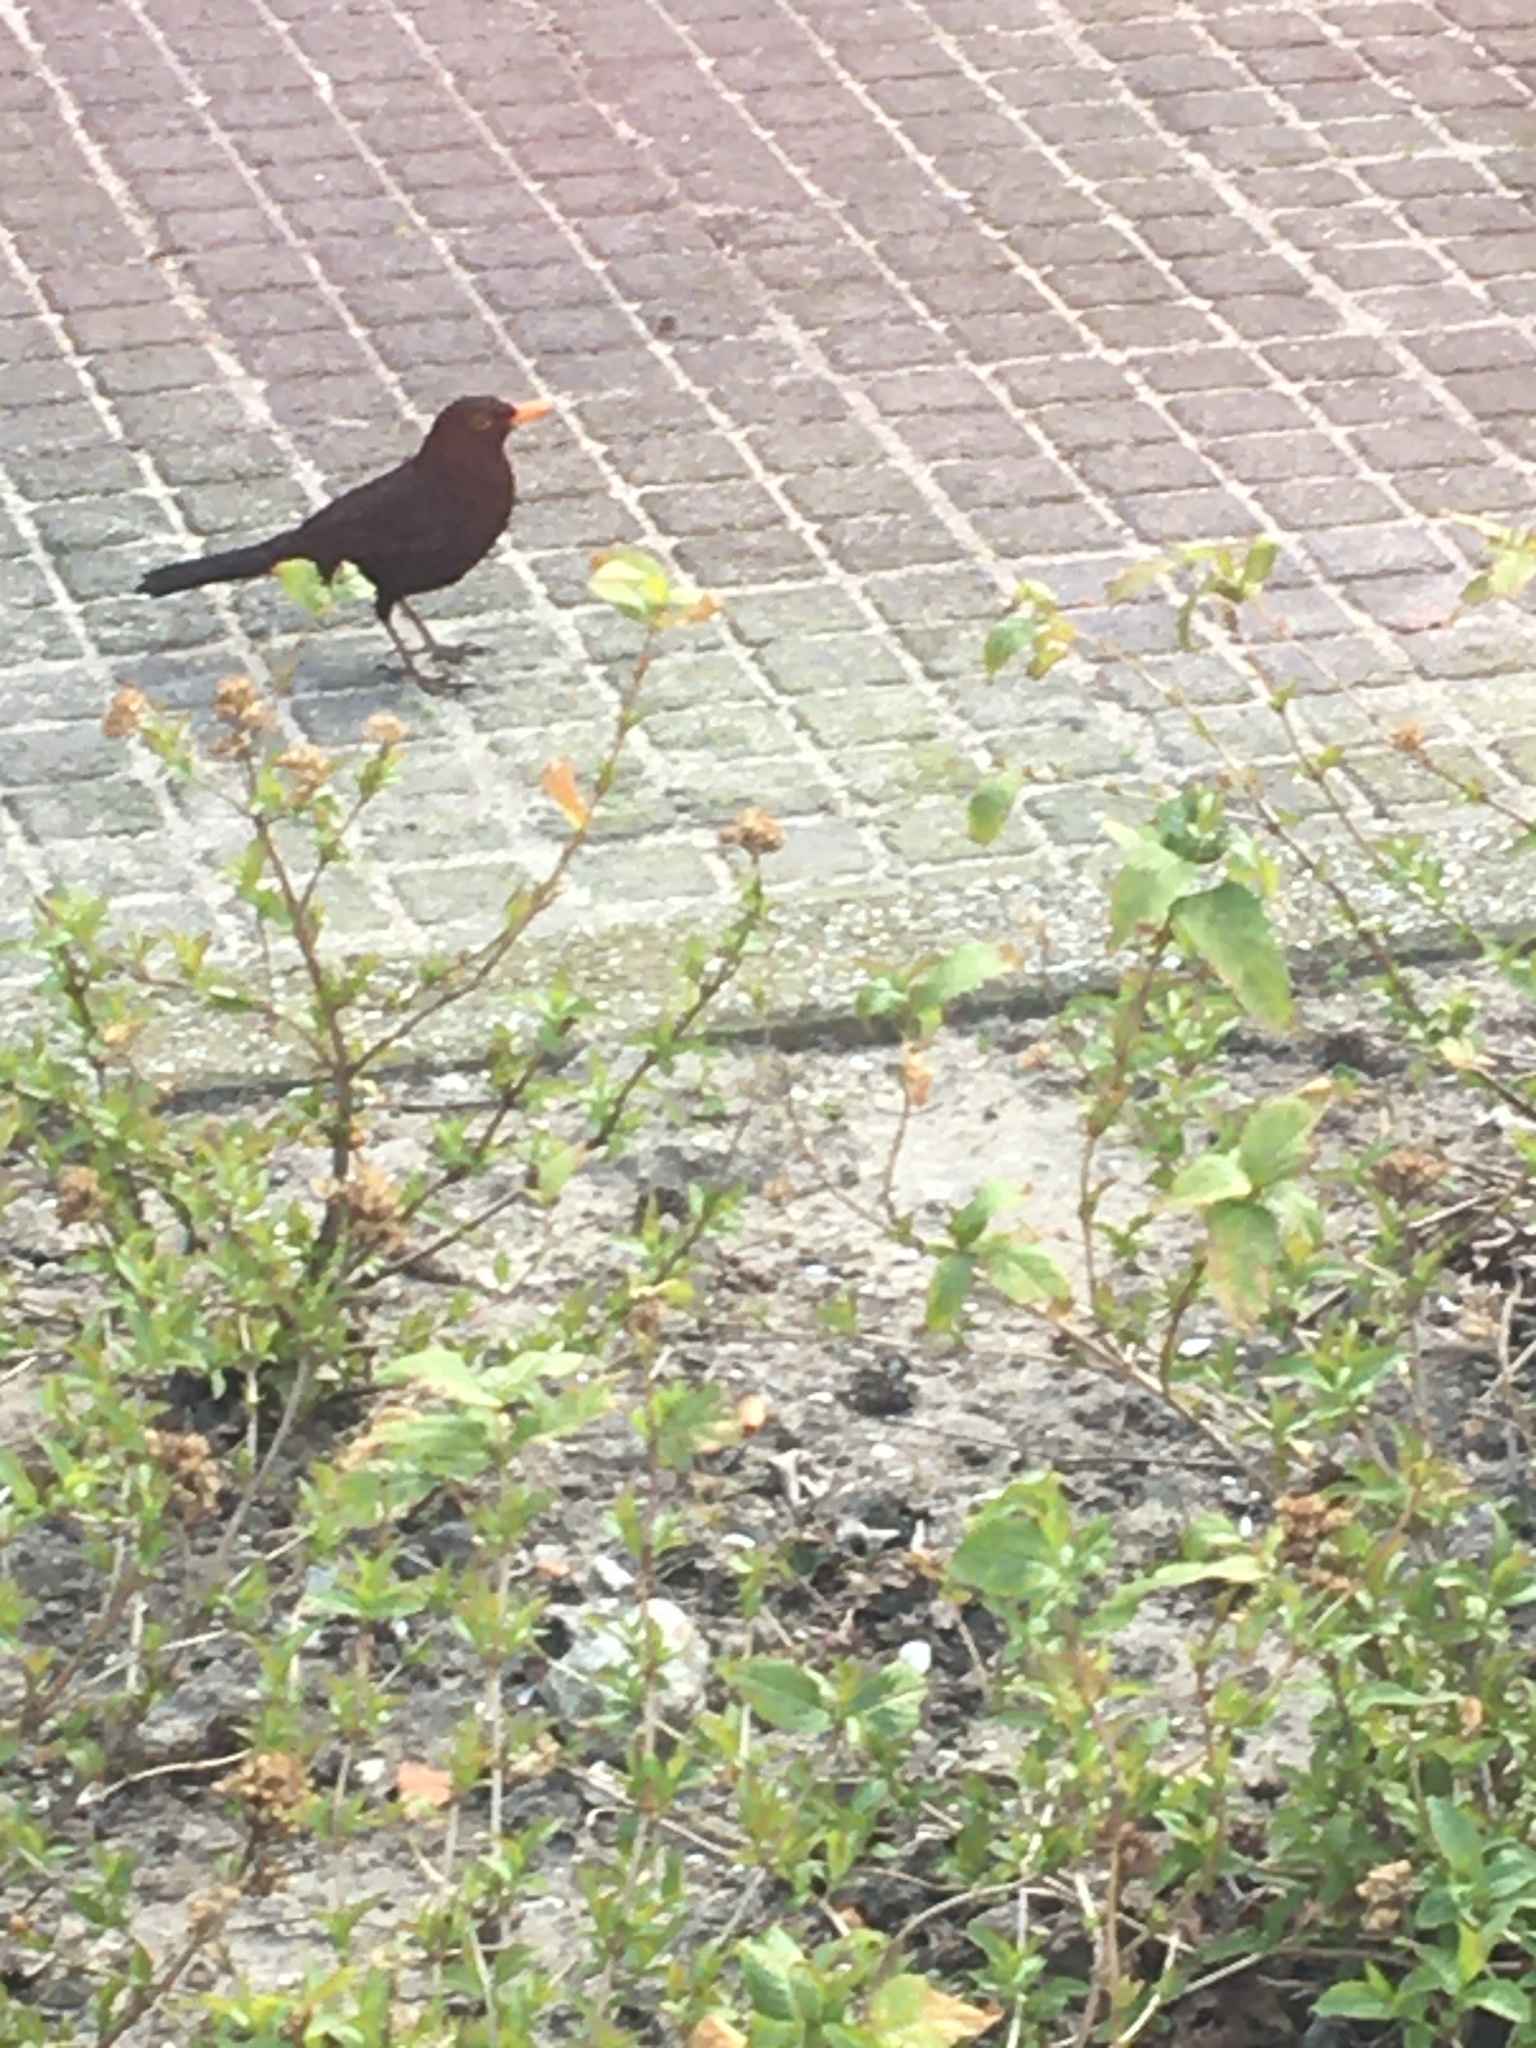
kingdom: Animalia
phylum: Chordata
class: Aves
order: Passeriformes
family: Turdidae
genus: Turdus
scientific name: Turdus merula
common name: Common blackbird
